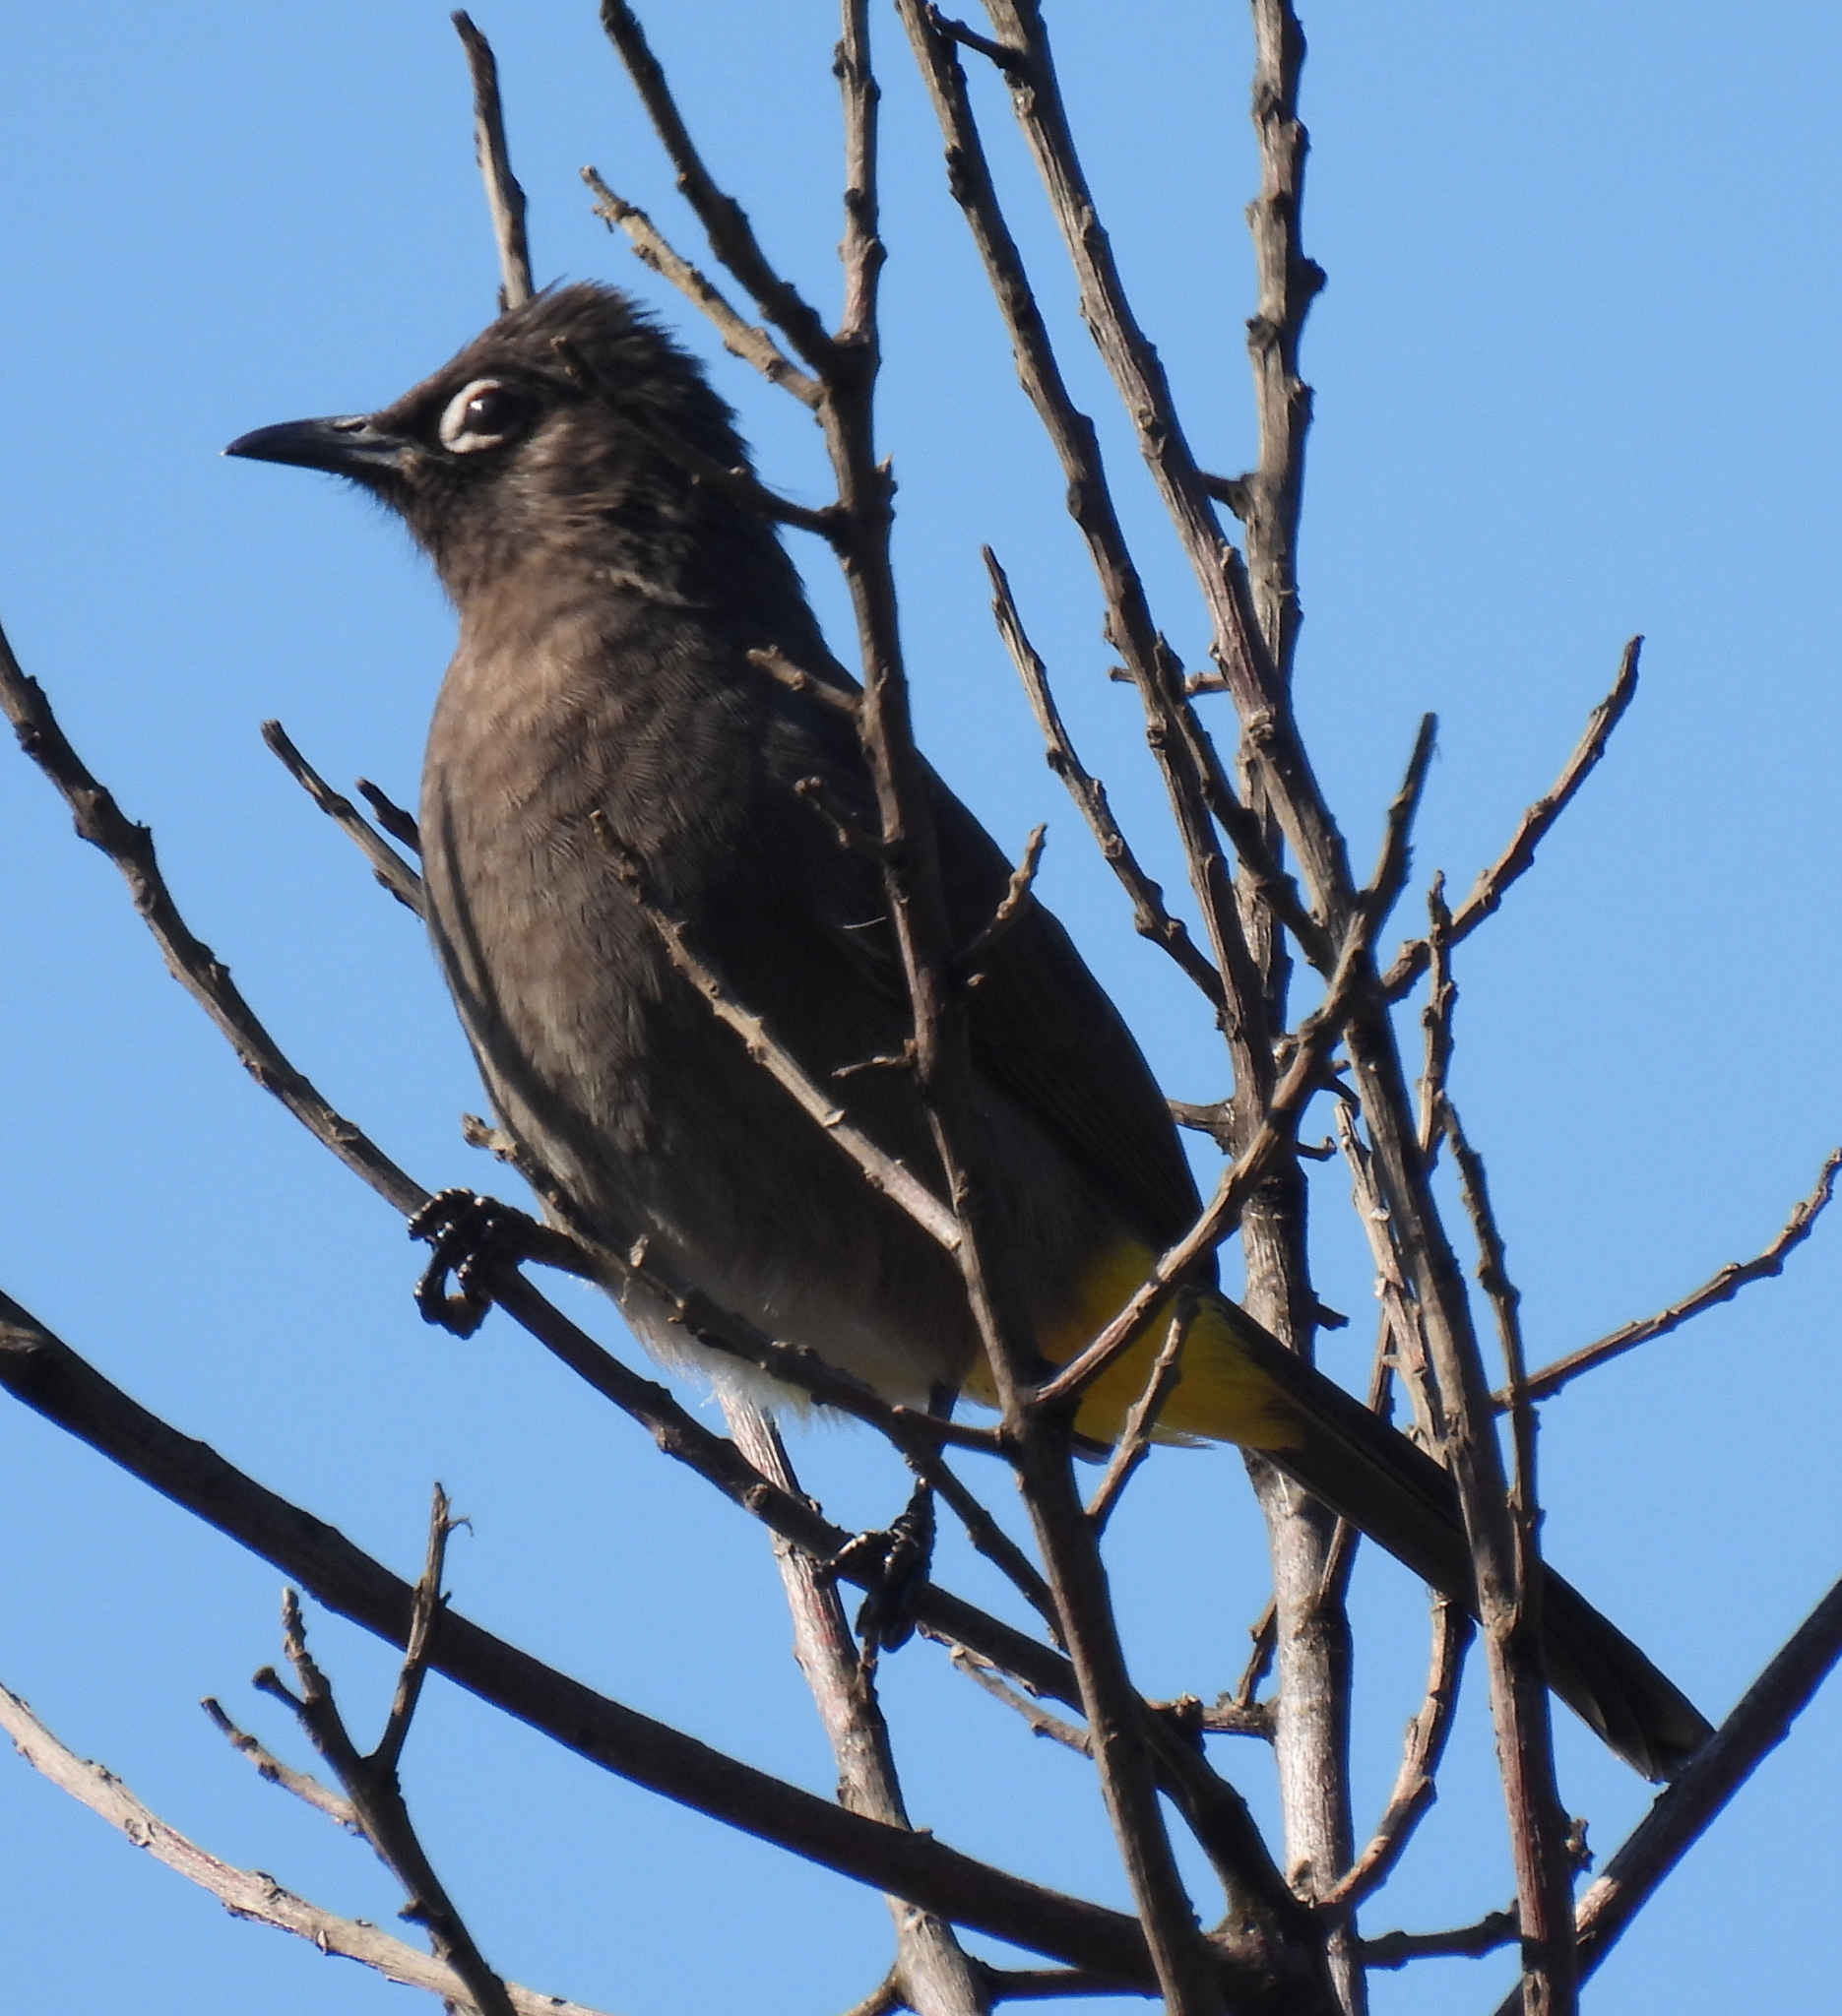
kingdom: Animalia
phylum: Chordata
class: Aves
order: Passeriformes
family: Pycnonotidae
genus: Pycnonotus
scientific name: Pycnonotus capensis
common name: Cape bulbul
